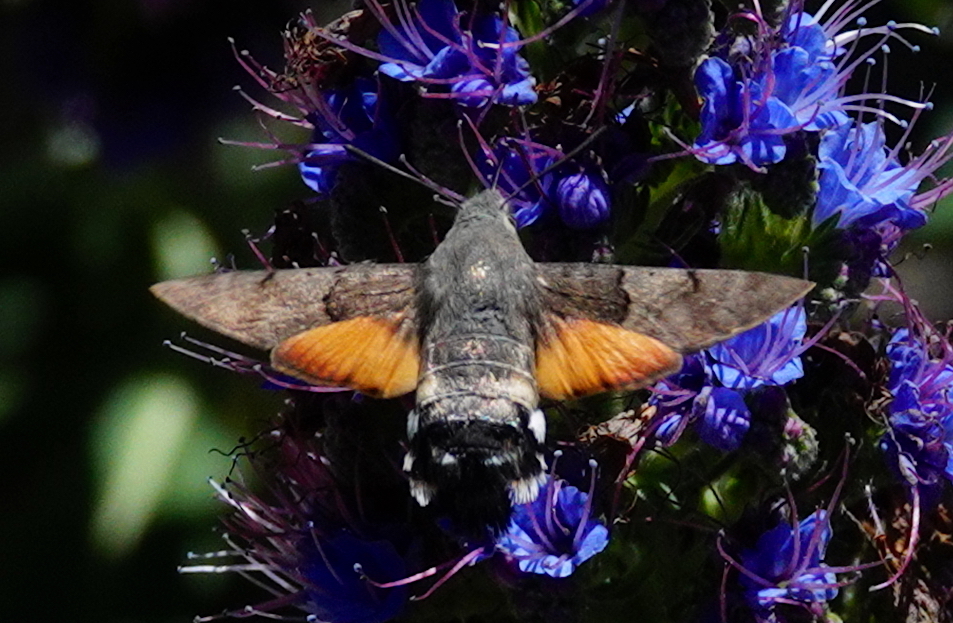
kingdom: Animalia
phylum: Arthropoda
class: Insecta
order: Lepidoptera
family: Sphingidae
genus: Macroglossum
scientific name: Macroglossum stellatarum
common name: Humming-bird hawk-moth
